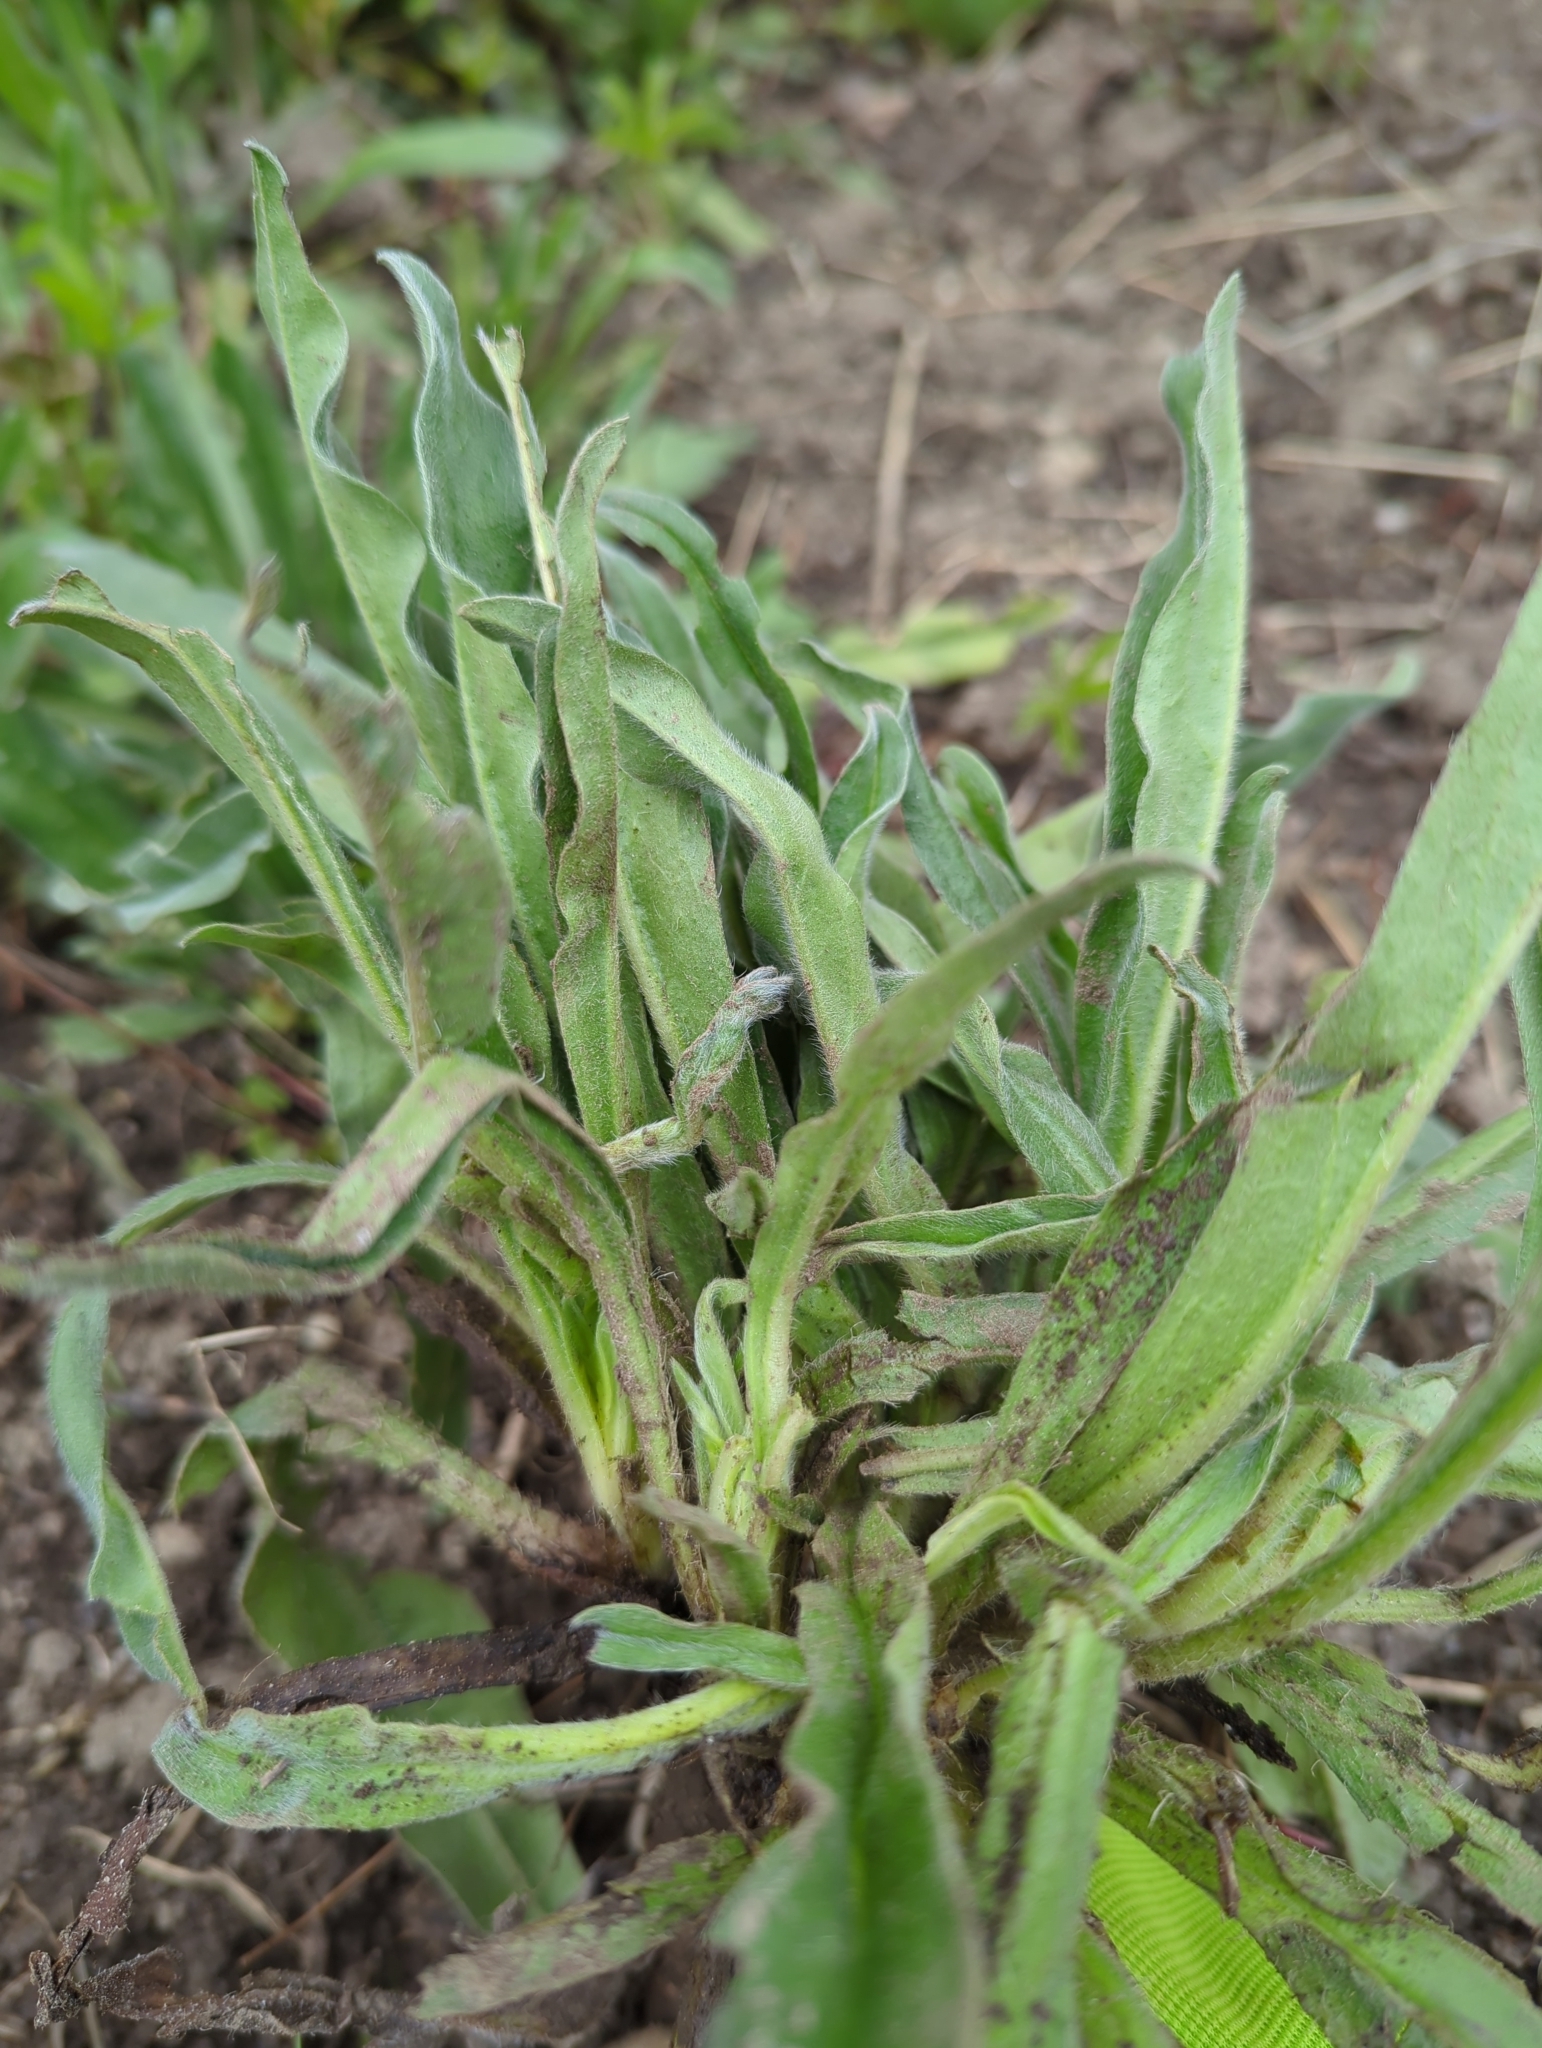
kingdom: Plantae
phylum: Tracheophyta
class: Magnoliopsida
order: Boraginales
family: Boraginaceae
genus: Echium
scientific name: Echium vulgare
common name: Common viper's bugloss
